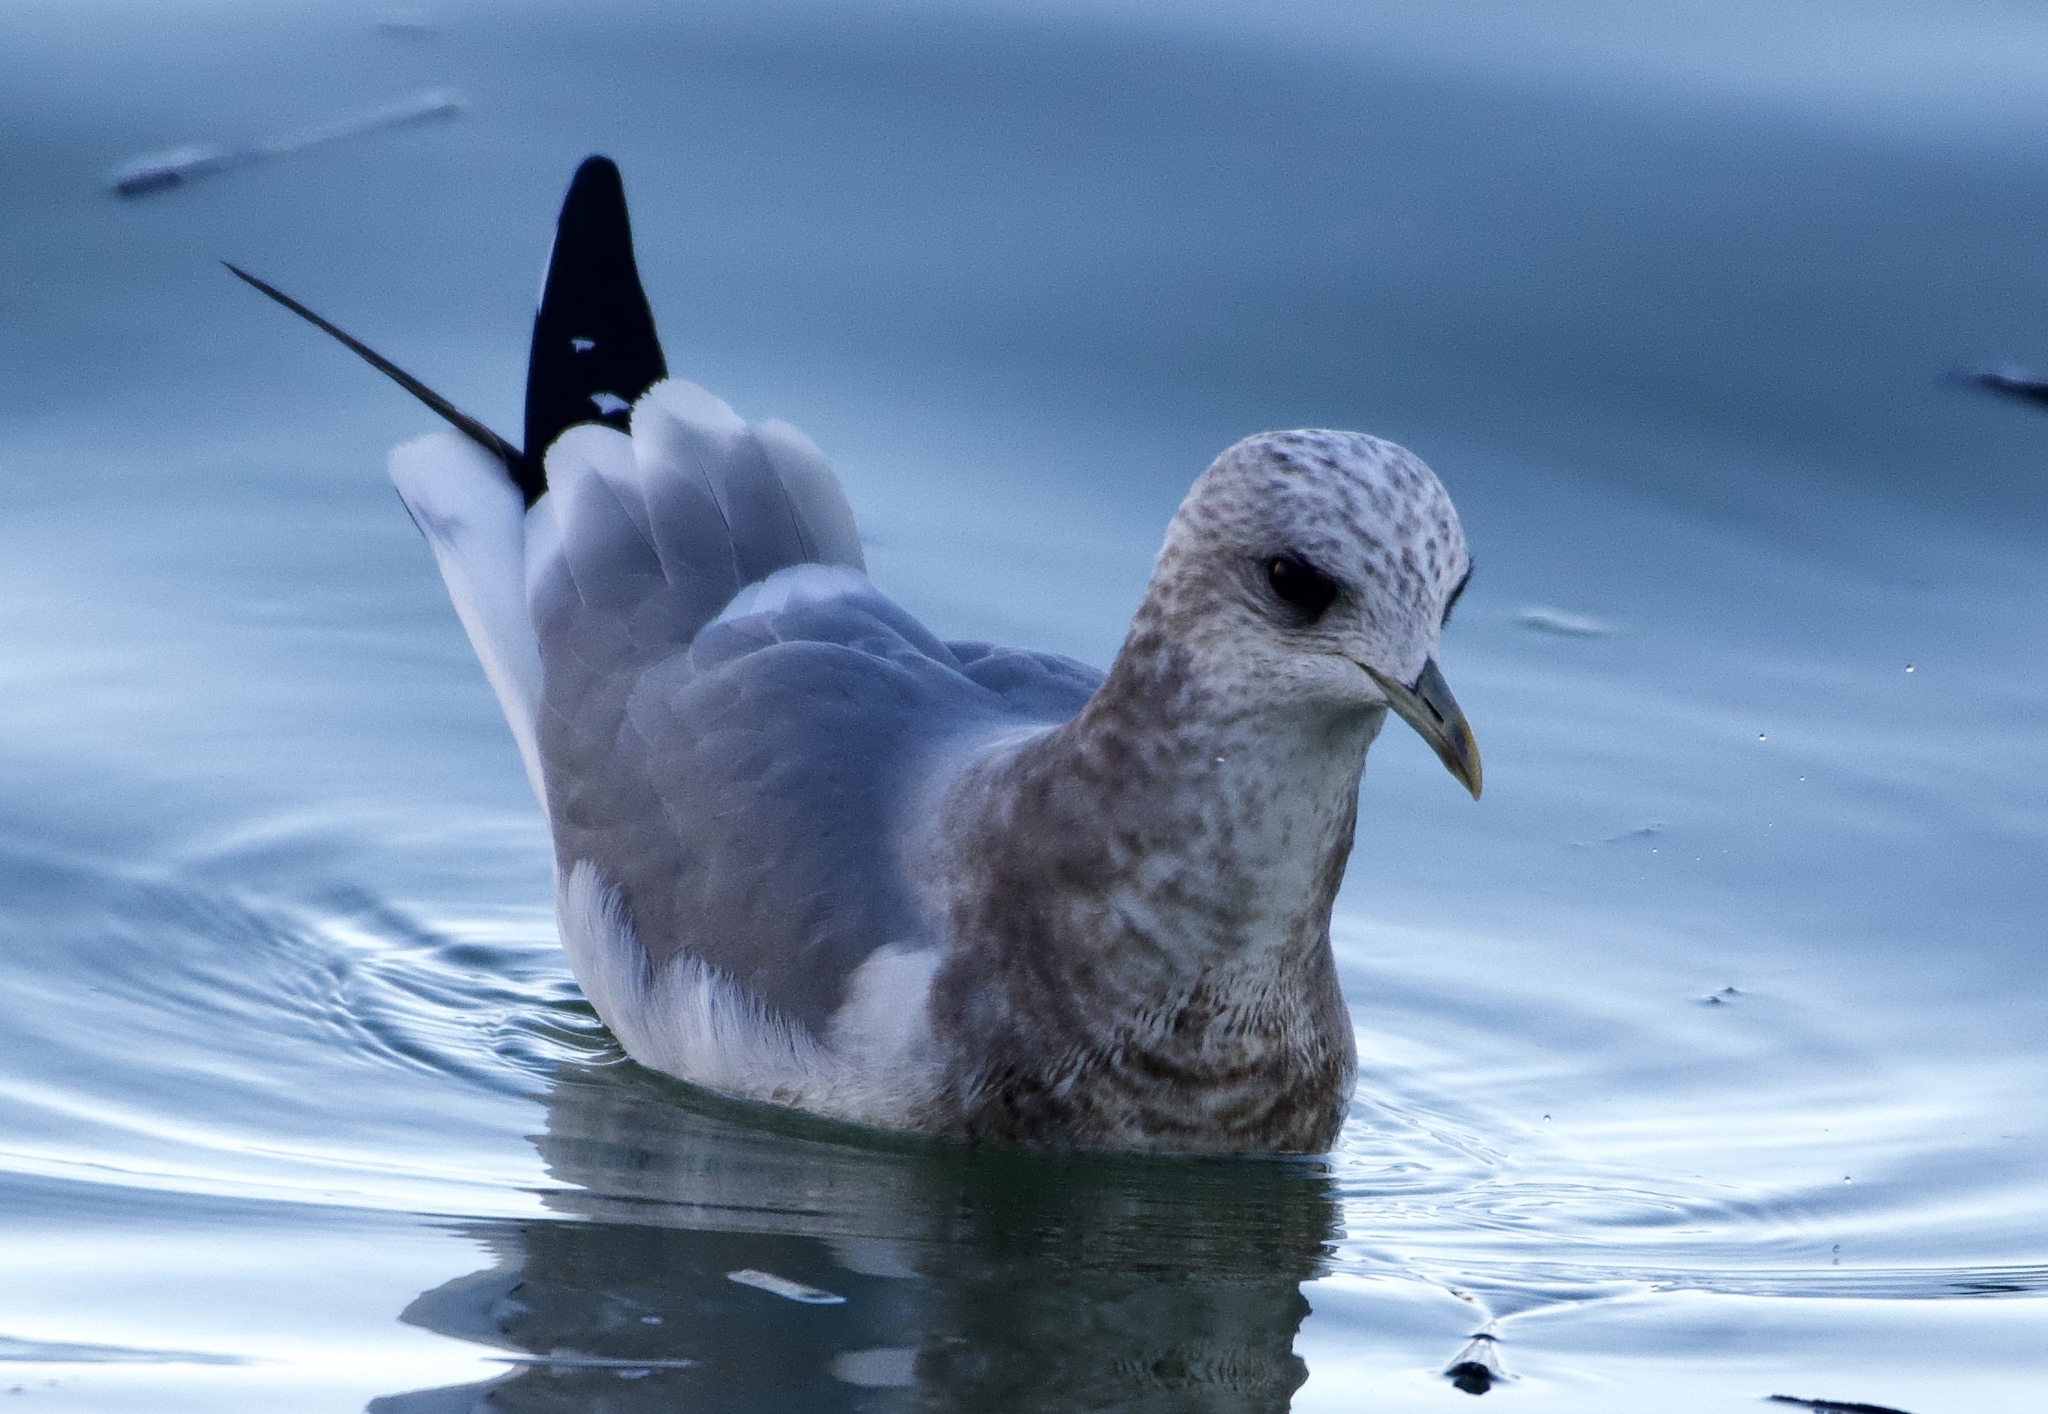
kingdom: Animalia
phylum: Chordata
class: Aves
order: Charadriiformes
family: Laridae
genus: Larus
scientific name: Larus brachyrhynchus
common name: Short-billed gull
